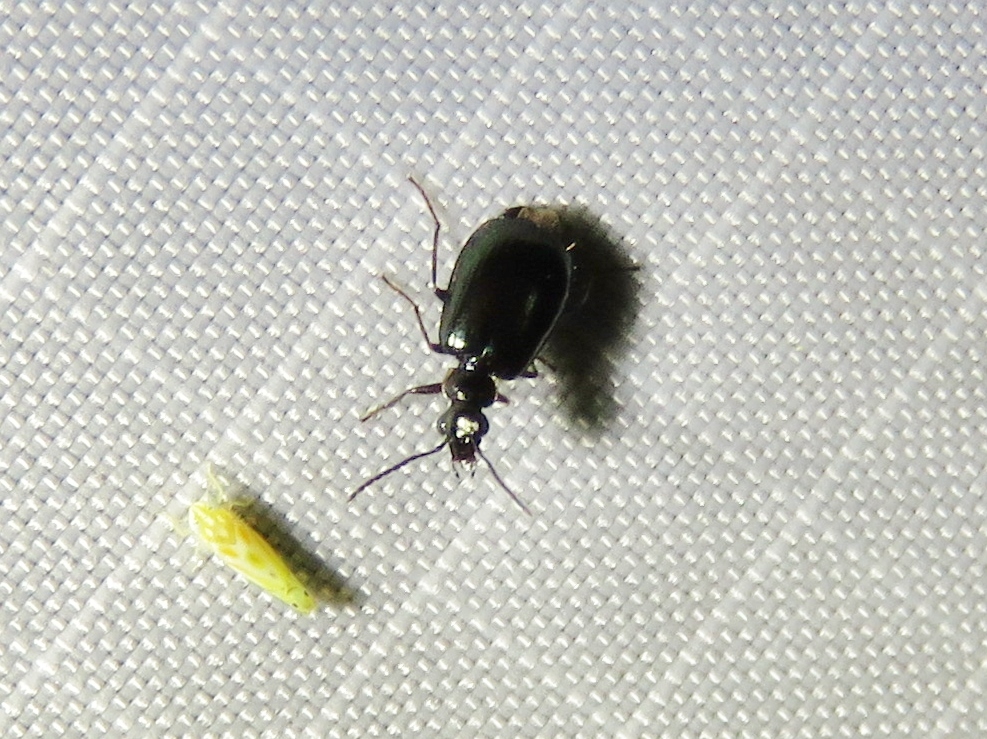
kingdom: Animalia
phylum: Arthropoda
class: Insecta
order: Coleoptera
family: Carabidae
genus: Lebia
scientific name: Lebia viridis
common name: Flower lebia beetle
